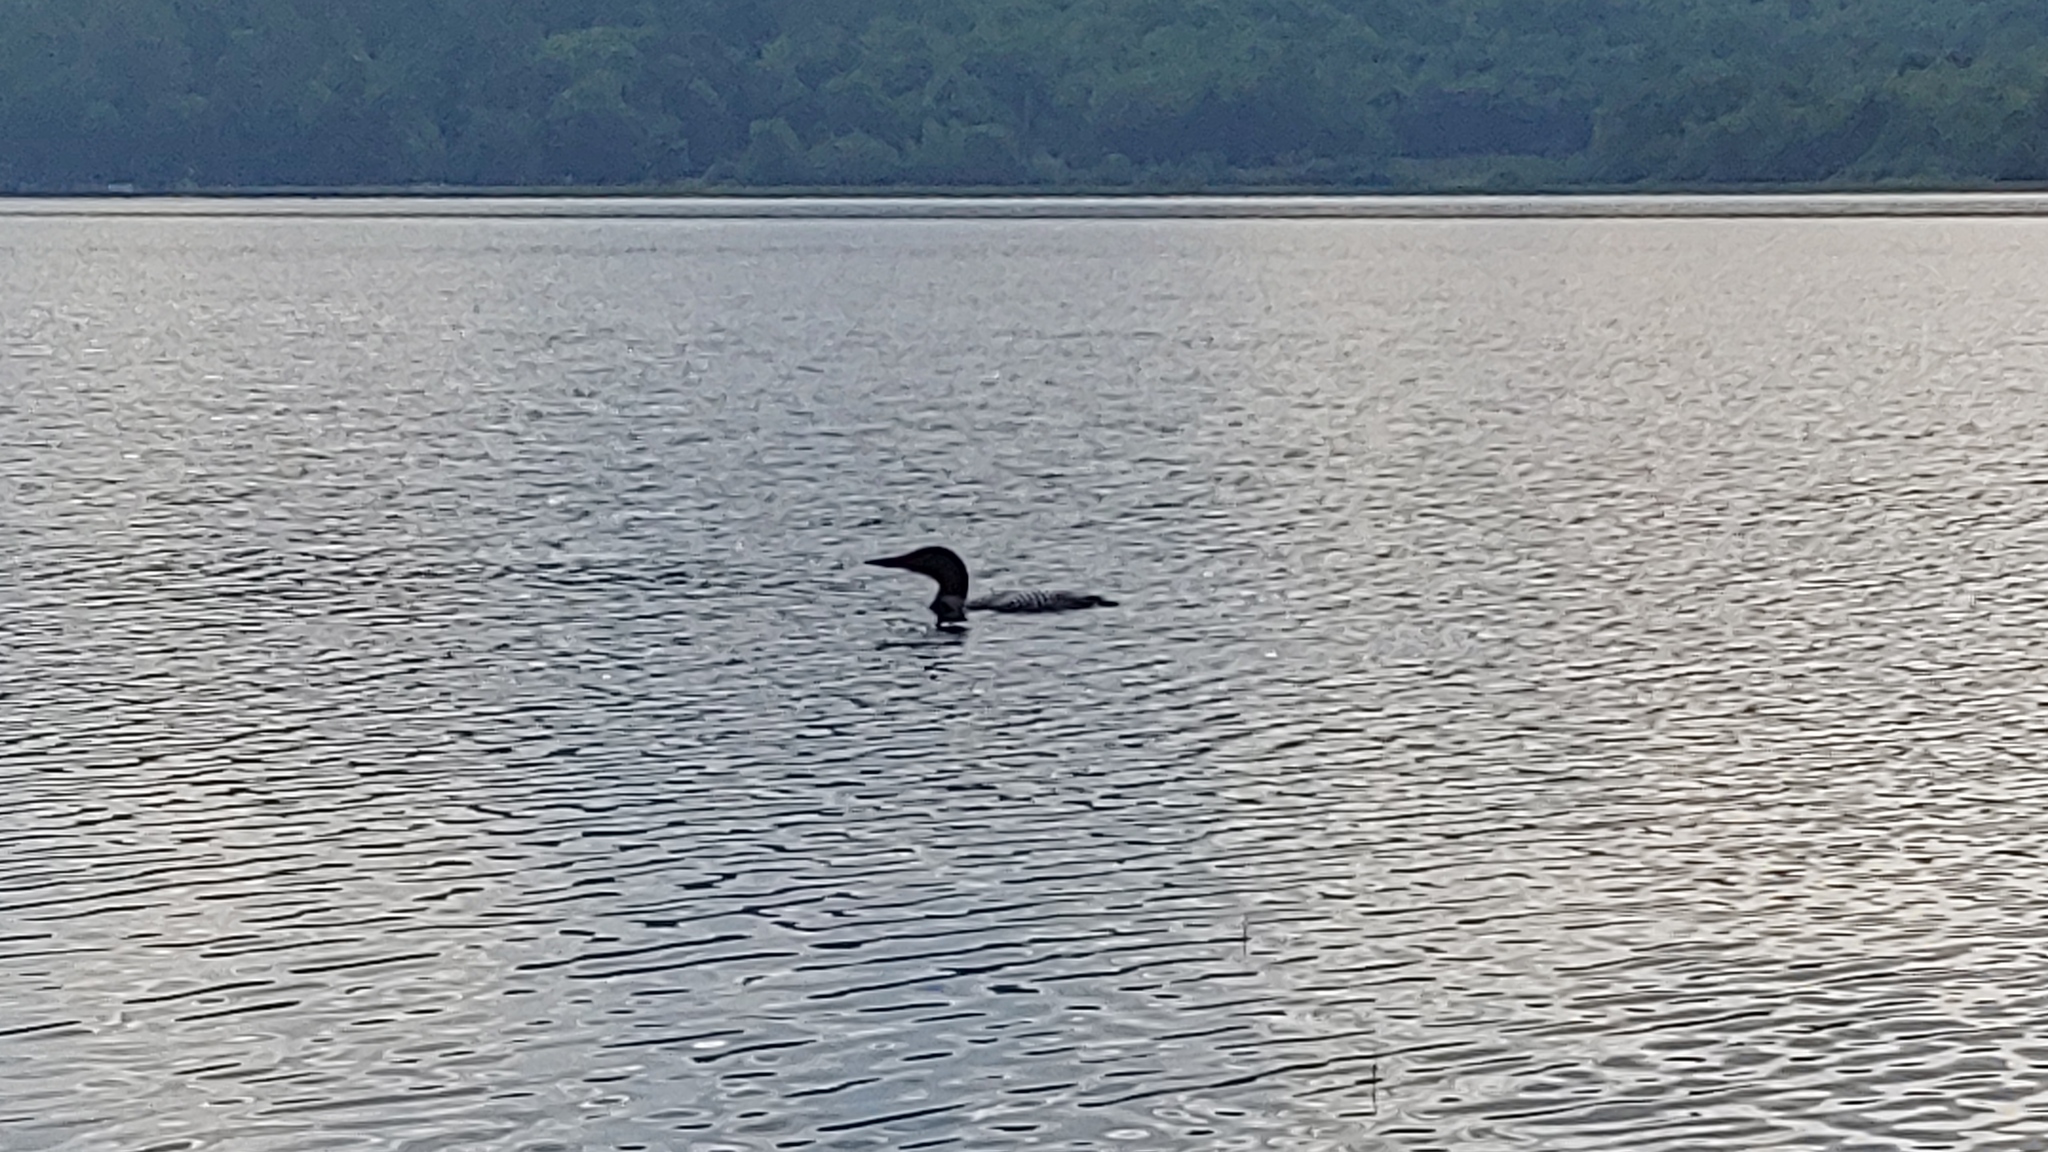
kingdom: Animalia
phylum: Chordata
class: Aves
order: Gaviiformes
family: Gaviidae
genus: Gavia
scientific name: Gavia immer
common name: Common loon
